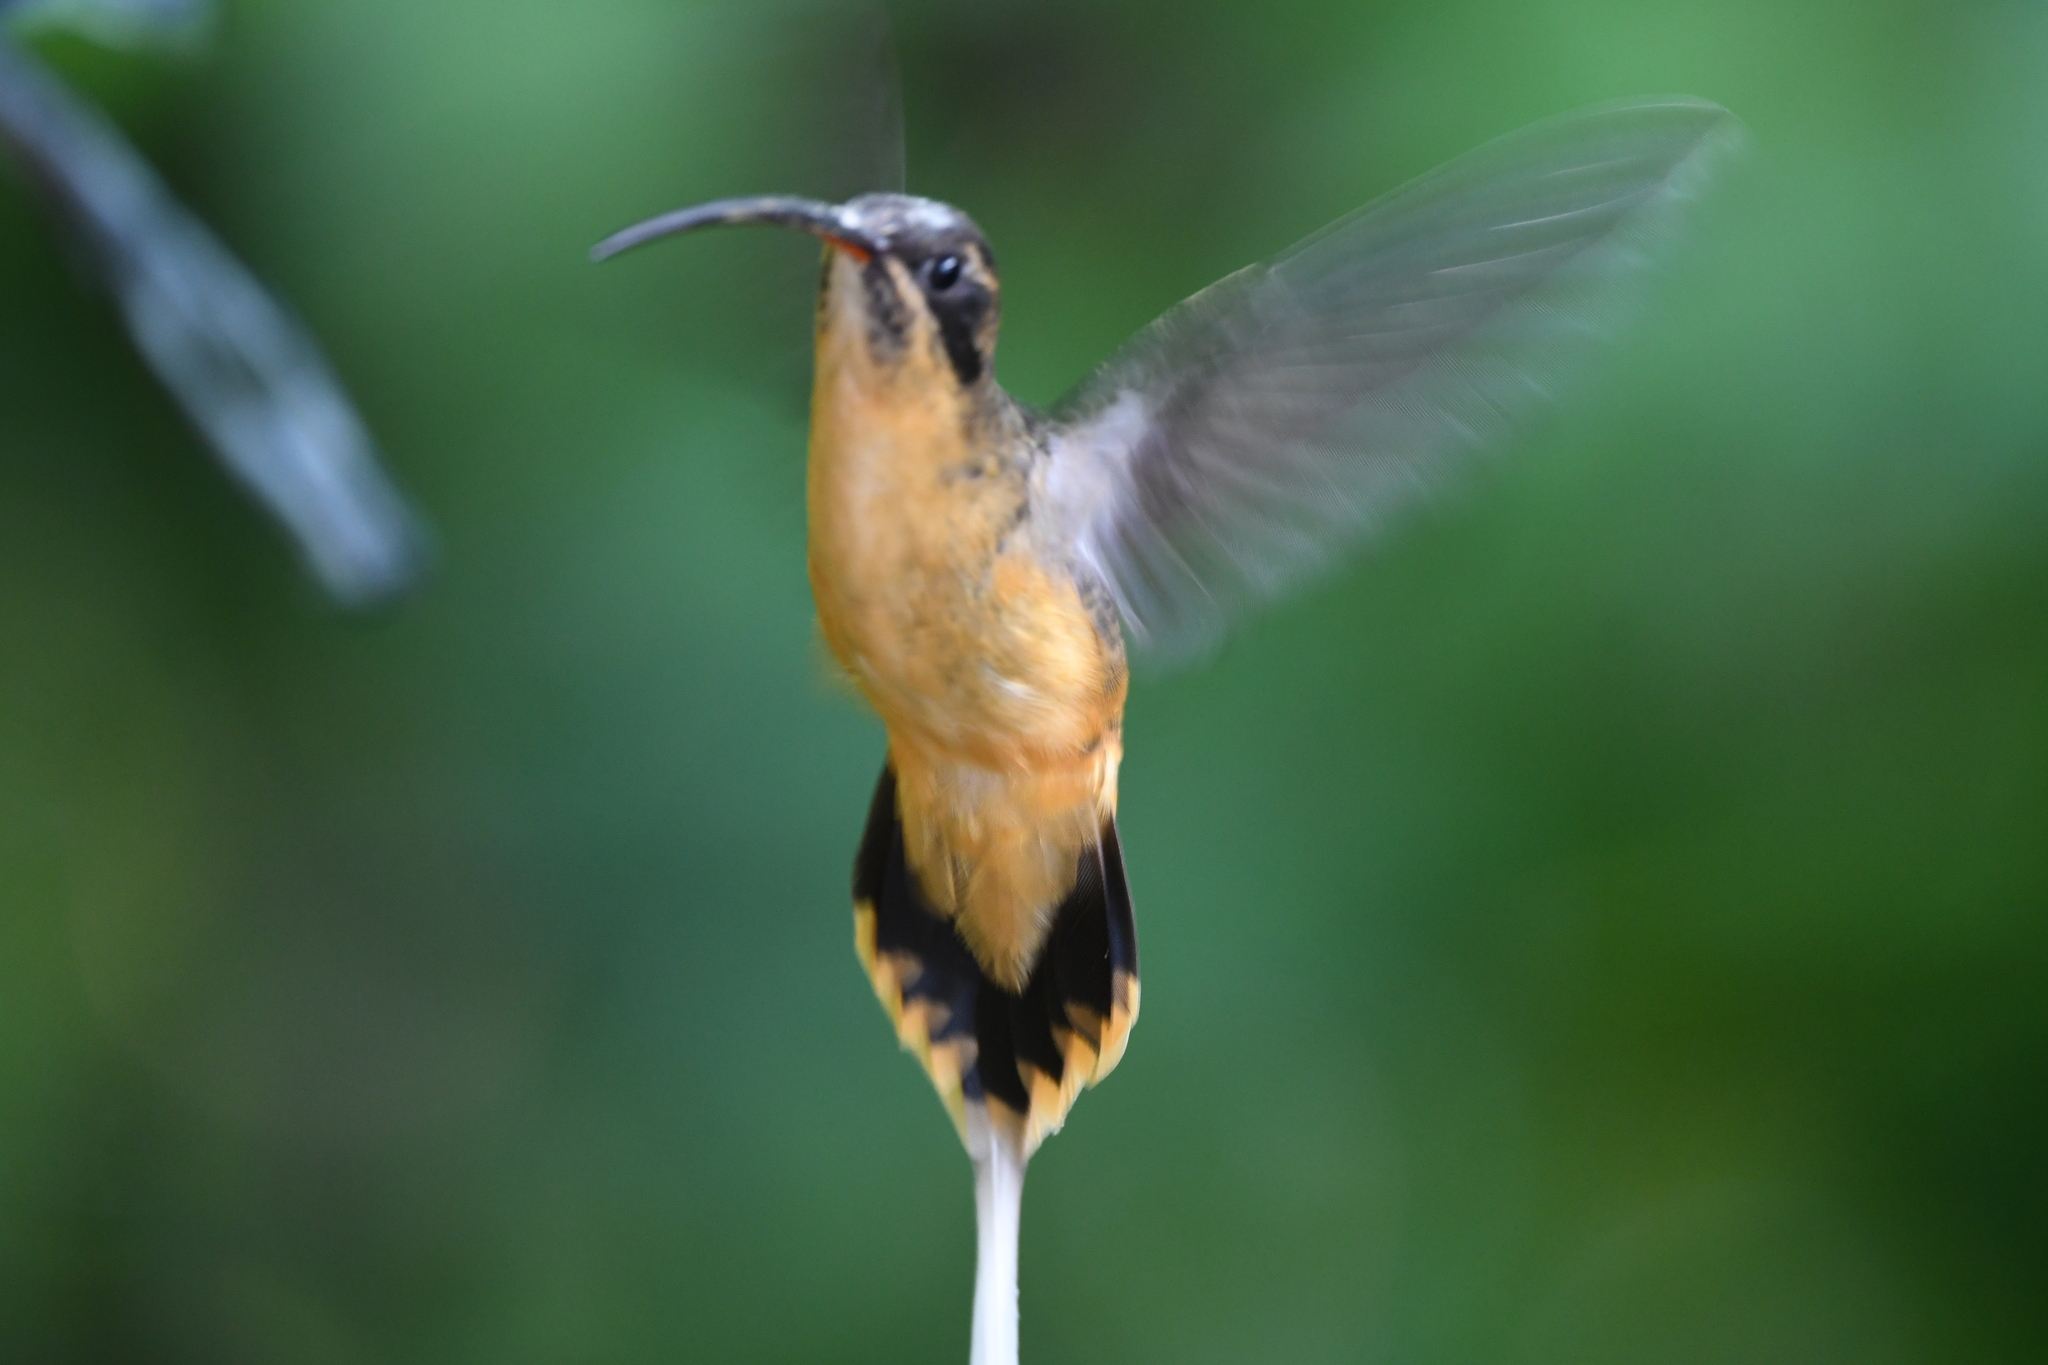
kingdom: Animalia
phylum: Chordata
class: Aves
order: Apodiformes
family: Trochilidae
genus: Phaethornis
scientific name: Phaethornis syrmatophorus
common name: Tawny-bellied hermit
